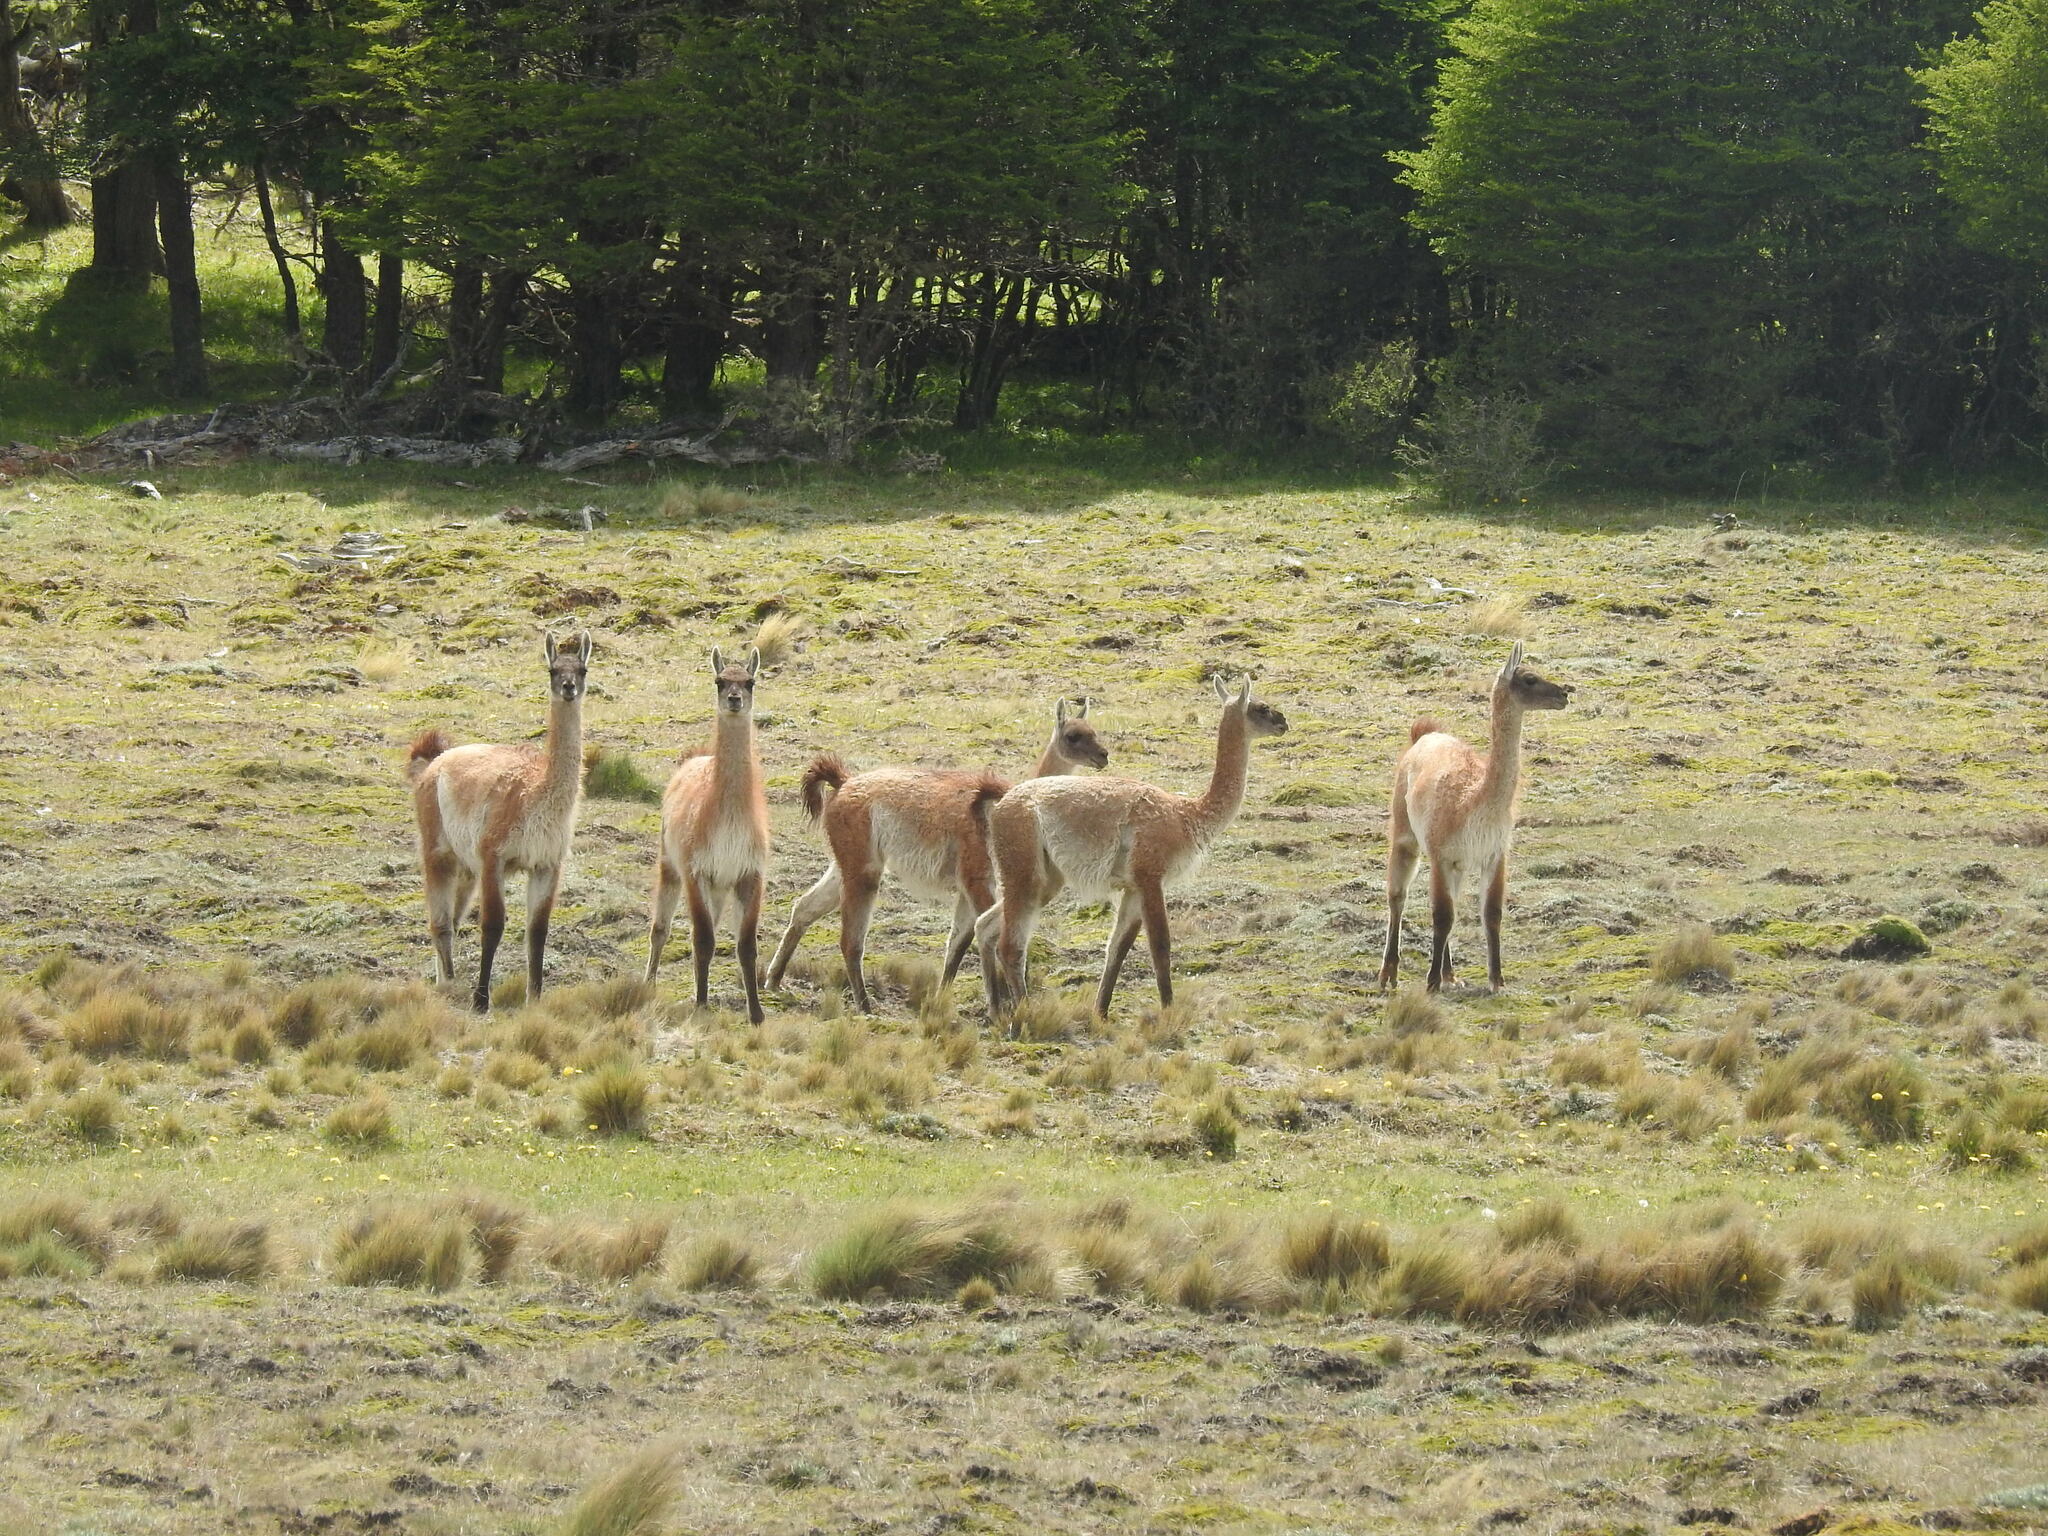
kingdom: Animalia
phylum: Chordata
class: Mammalia
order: Artiodactyla
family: Camelidae
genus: Lama
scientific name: Lama glama
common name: Llama
